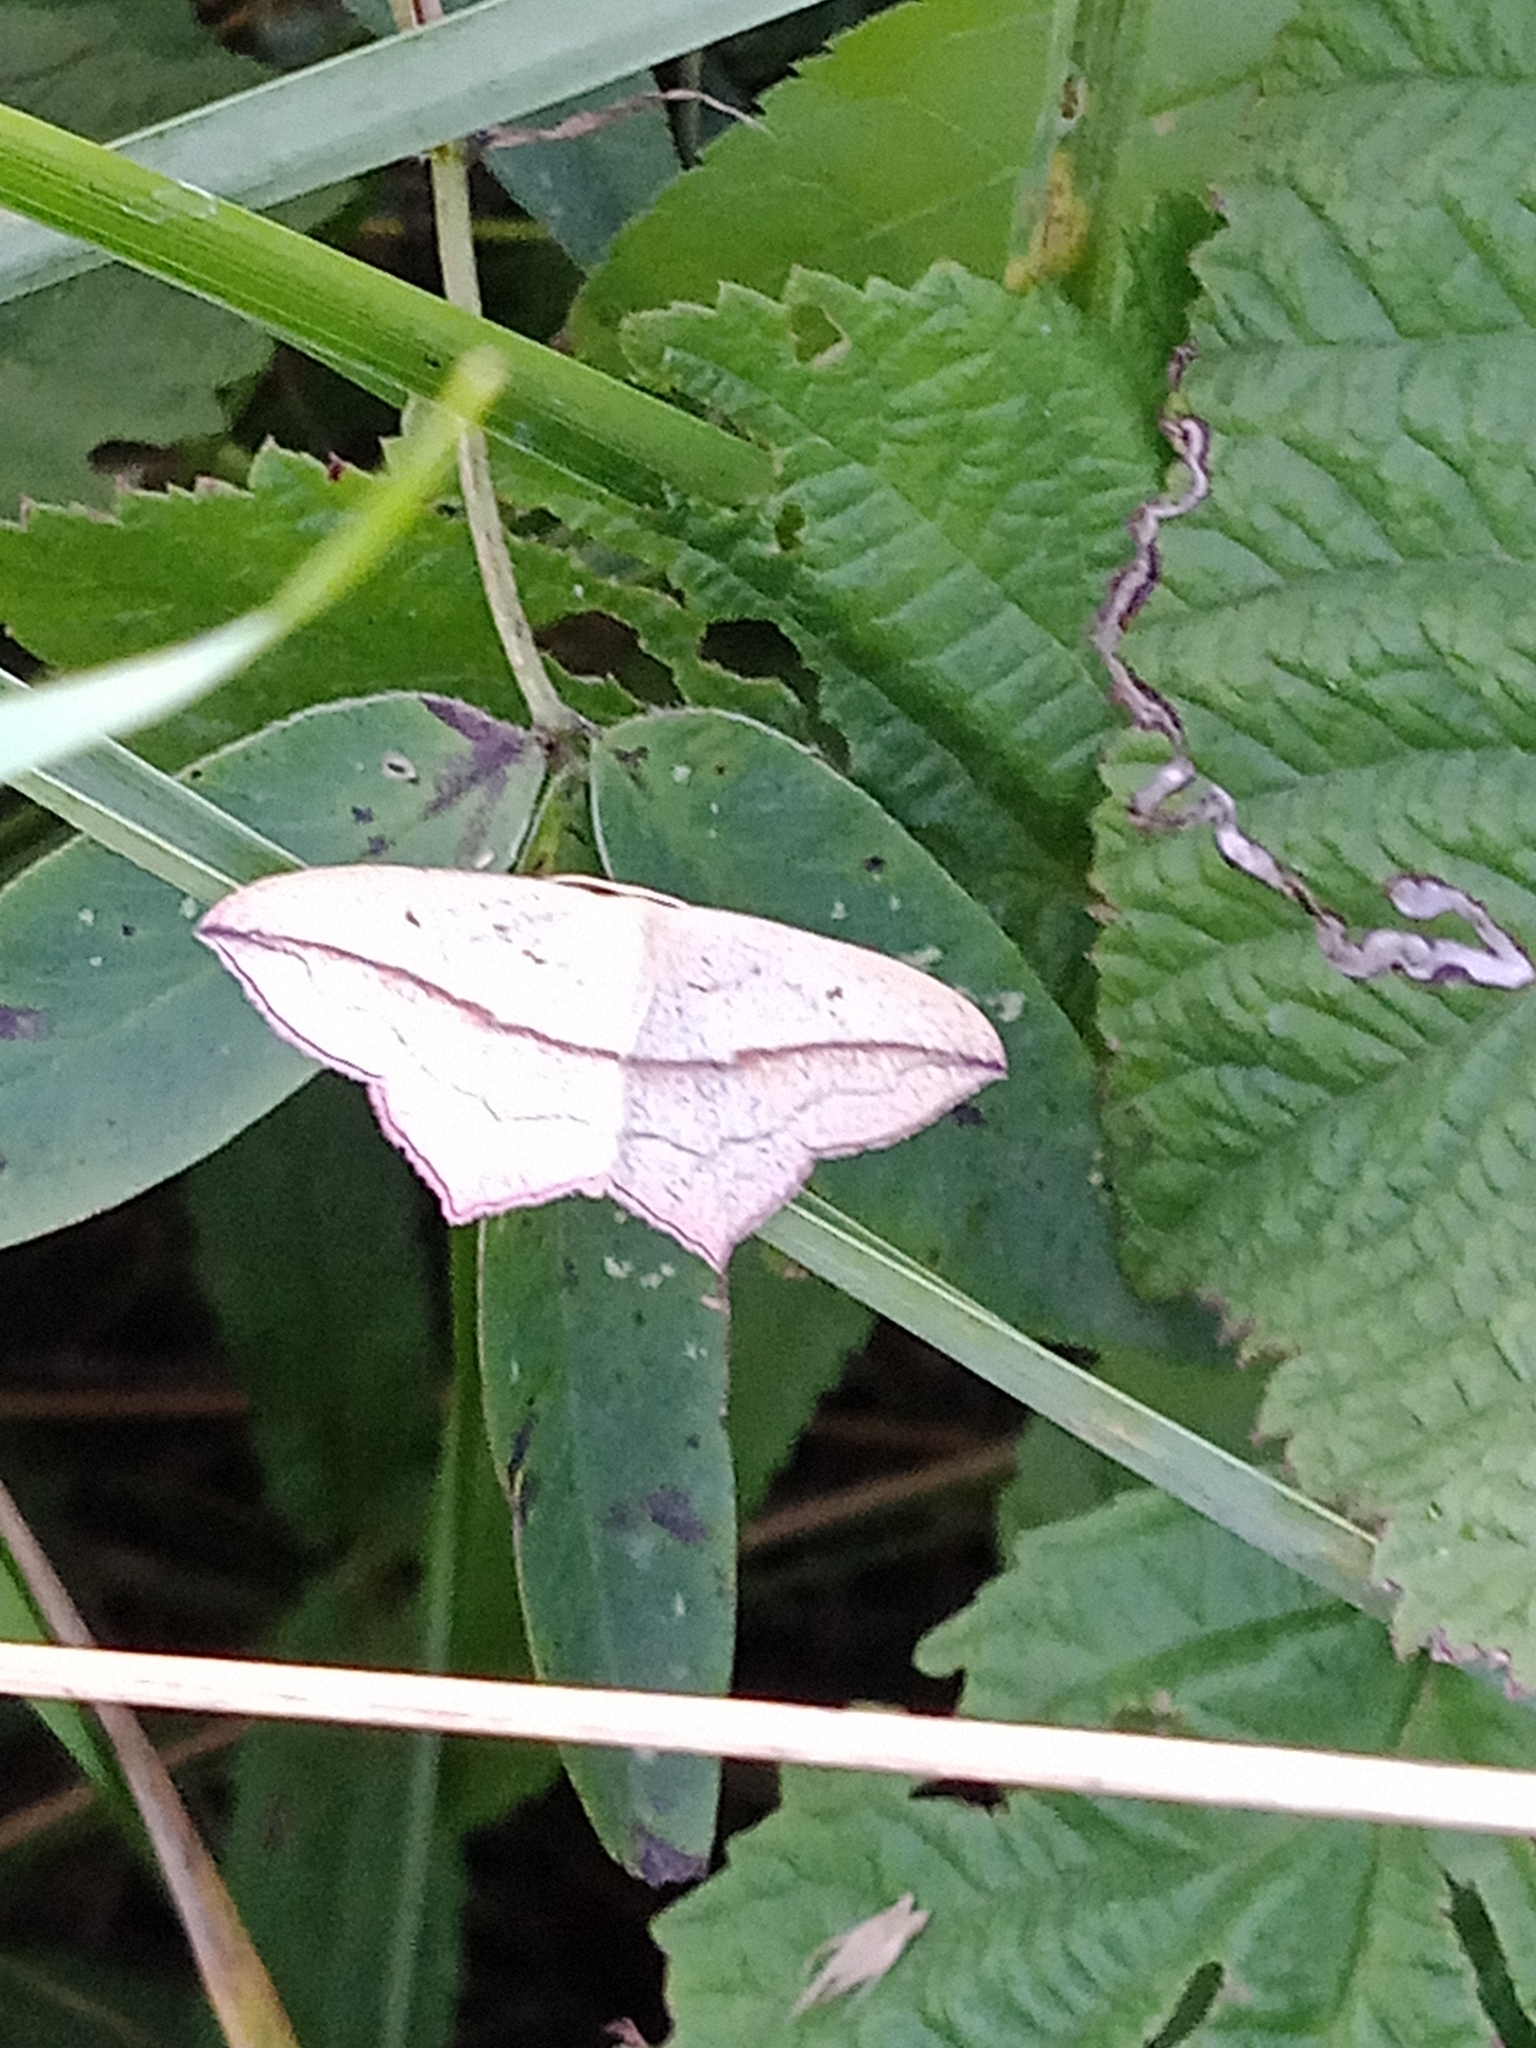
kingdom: Animalia
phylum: Arthropoda
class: Insecta
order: Lepidoptera
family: Geometridae
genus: Timandra
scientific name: Timandra comae
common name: Blood-vein
